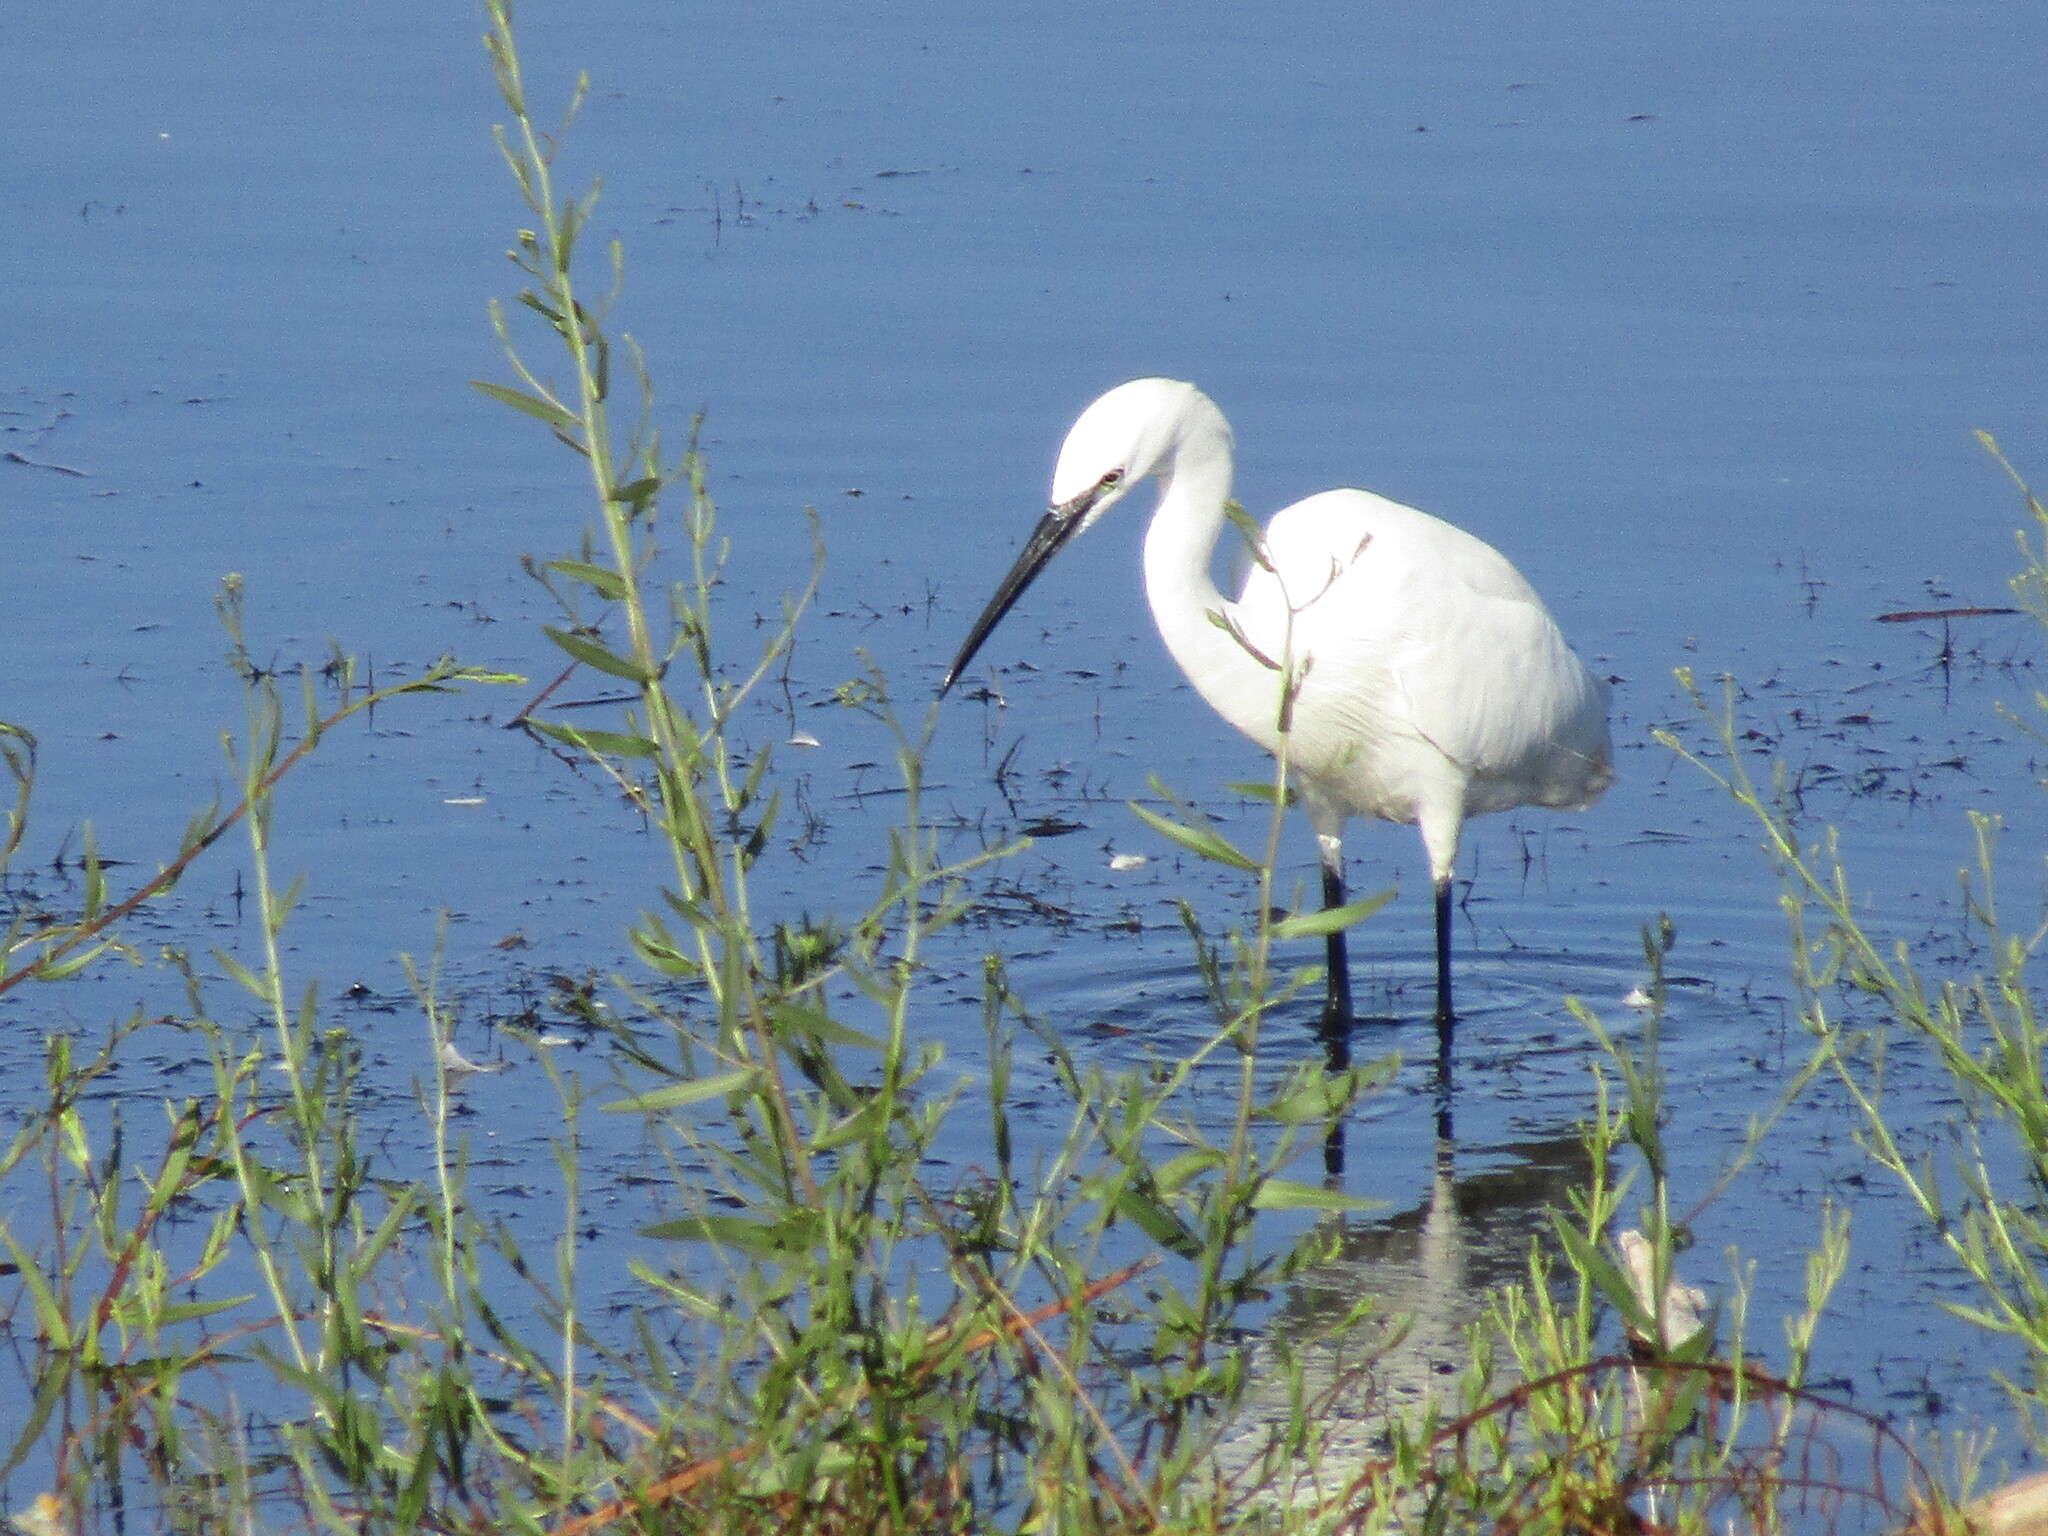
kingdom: Animalia
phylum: Chordata
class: Aves
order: Pelecaniformes
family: Ardeidae
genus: Egretta
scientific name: Egretta garzetta
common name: Little egret
